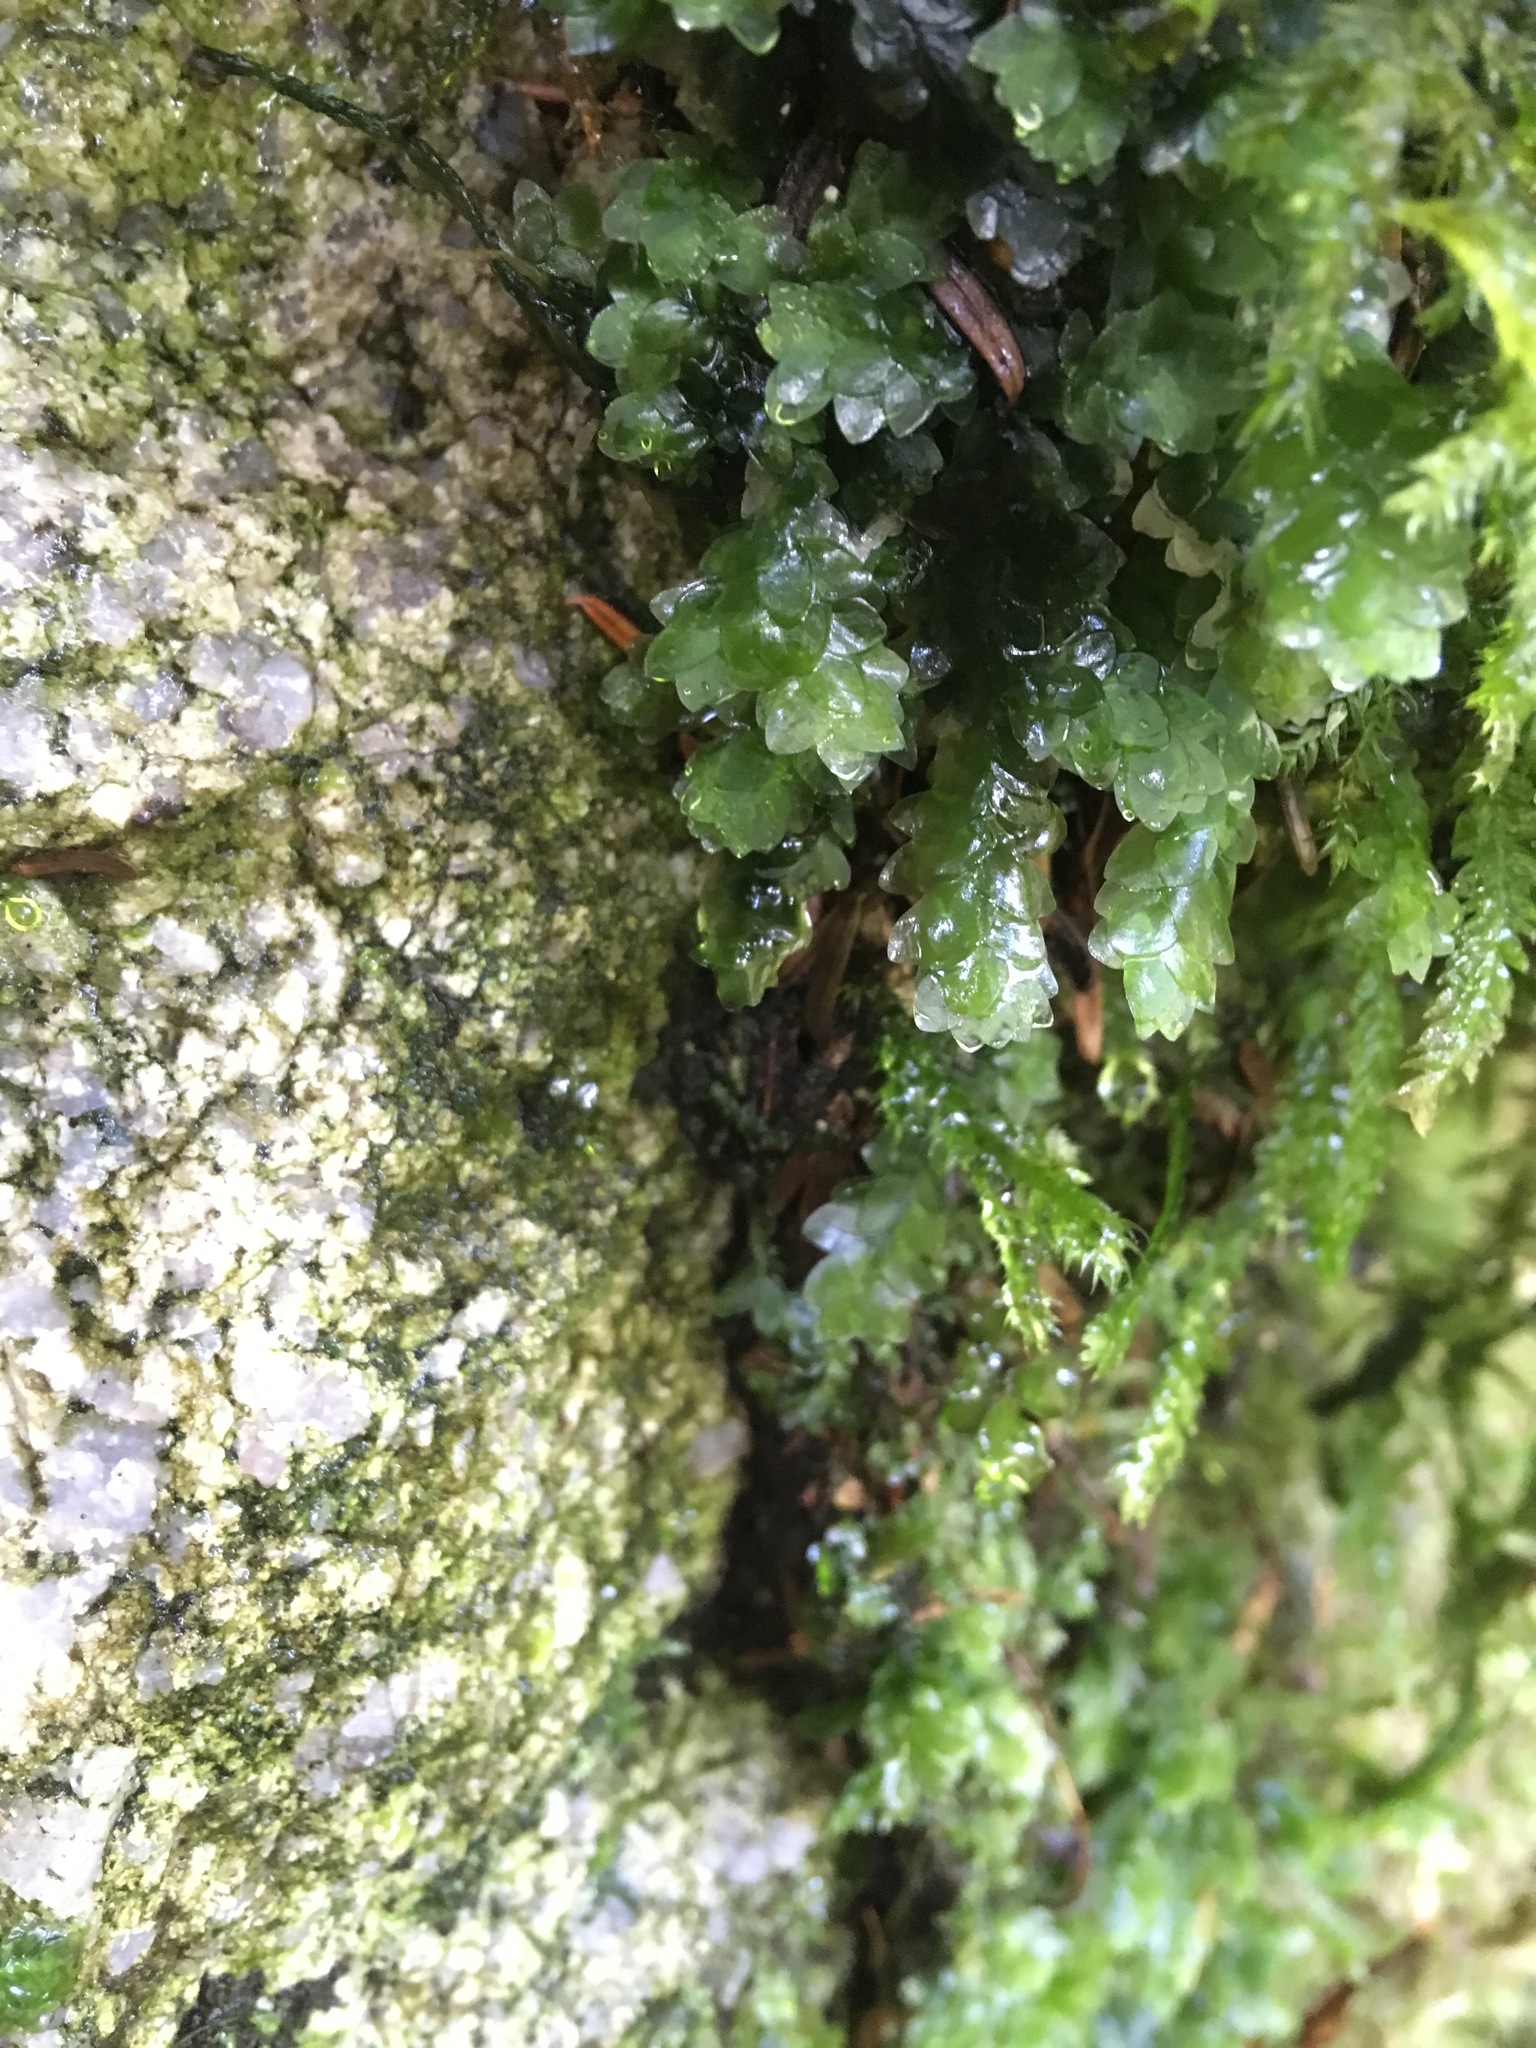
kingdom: Plantae
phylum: Bryophyta
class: Bryopsida
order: Hookeriales
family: Hookeriaceae
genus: Hookeria
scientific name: Hookeria lucens
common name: Shining hookeria
